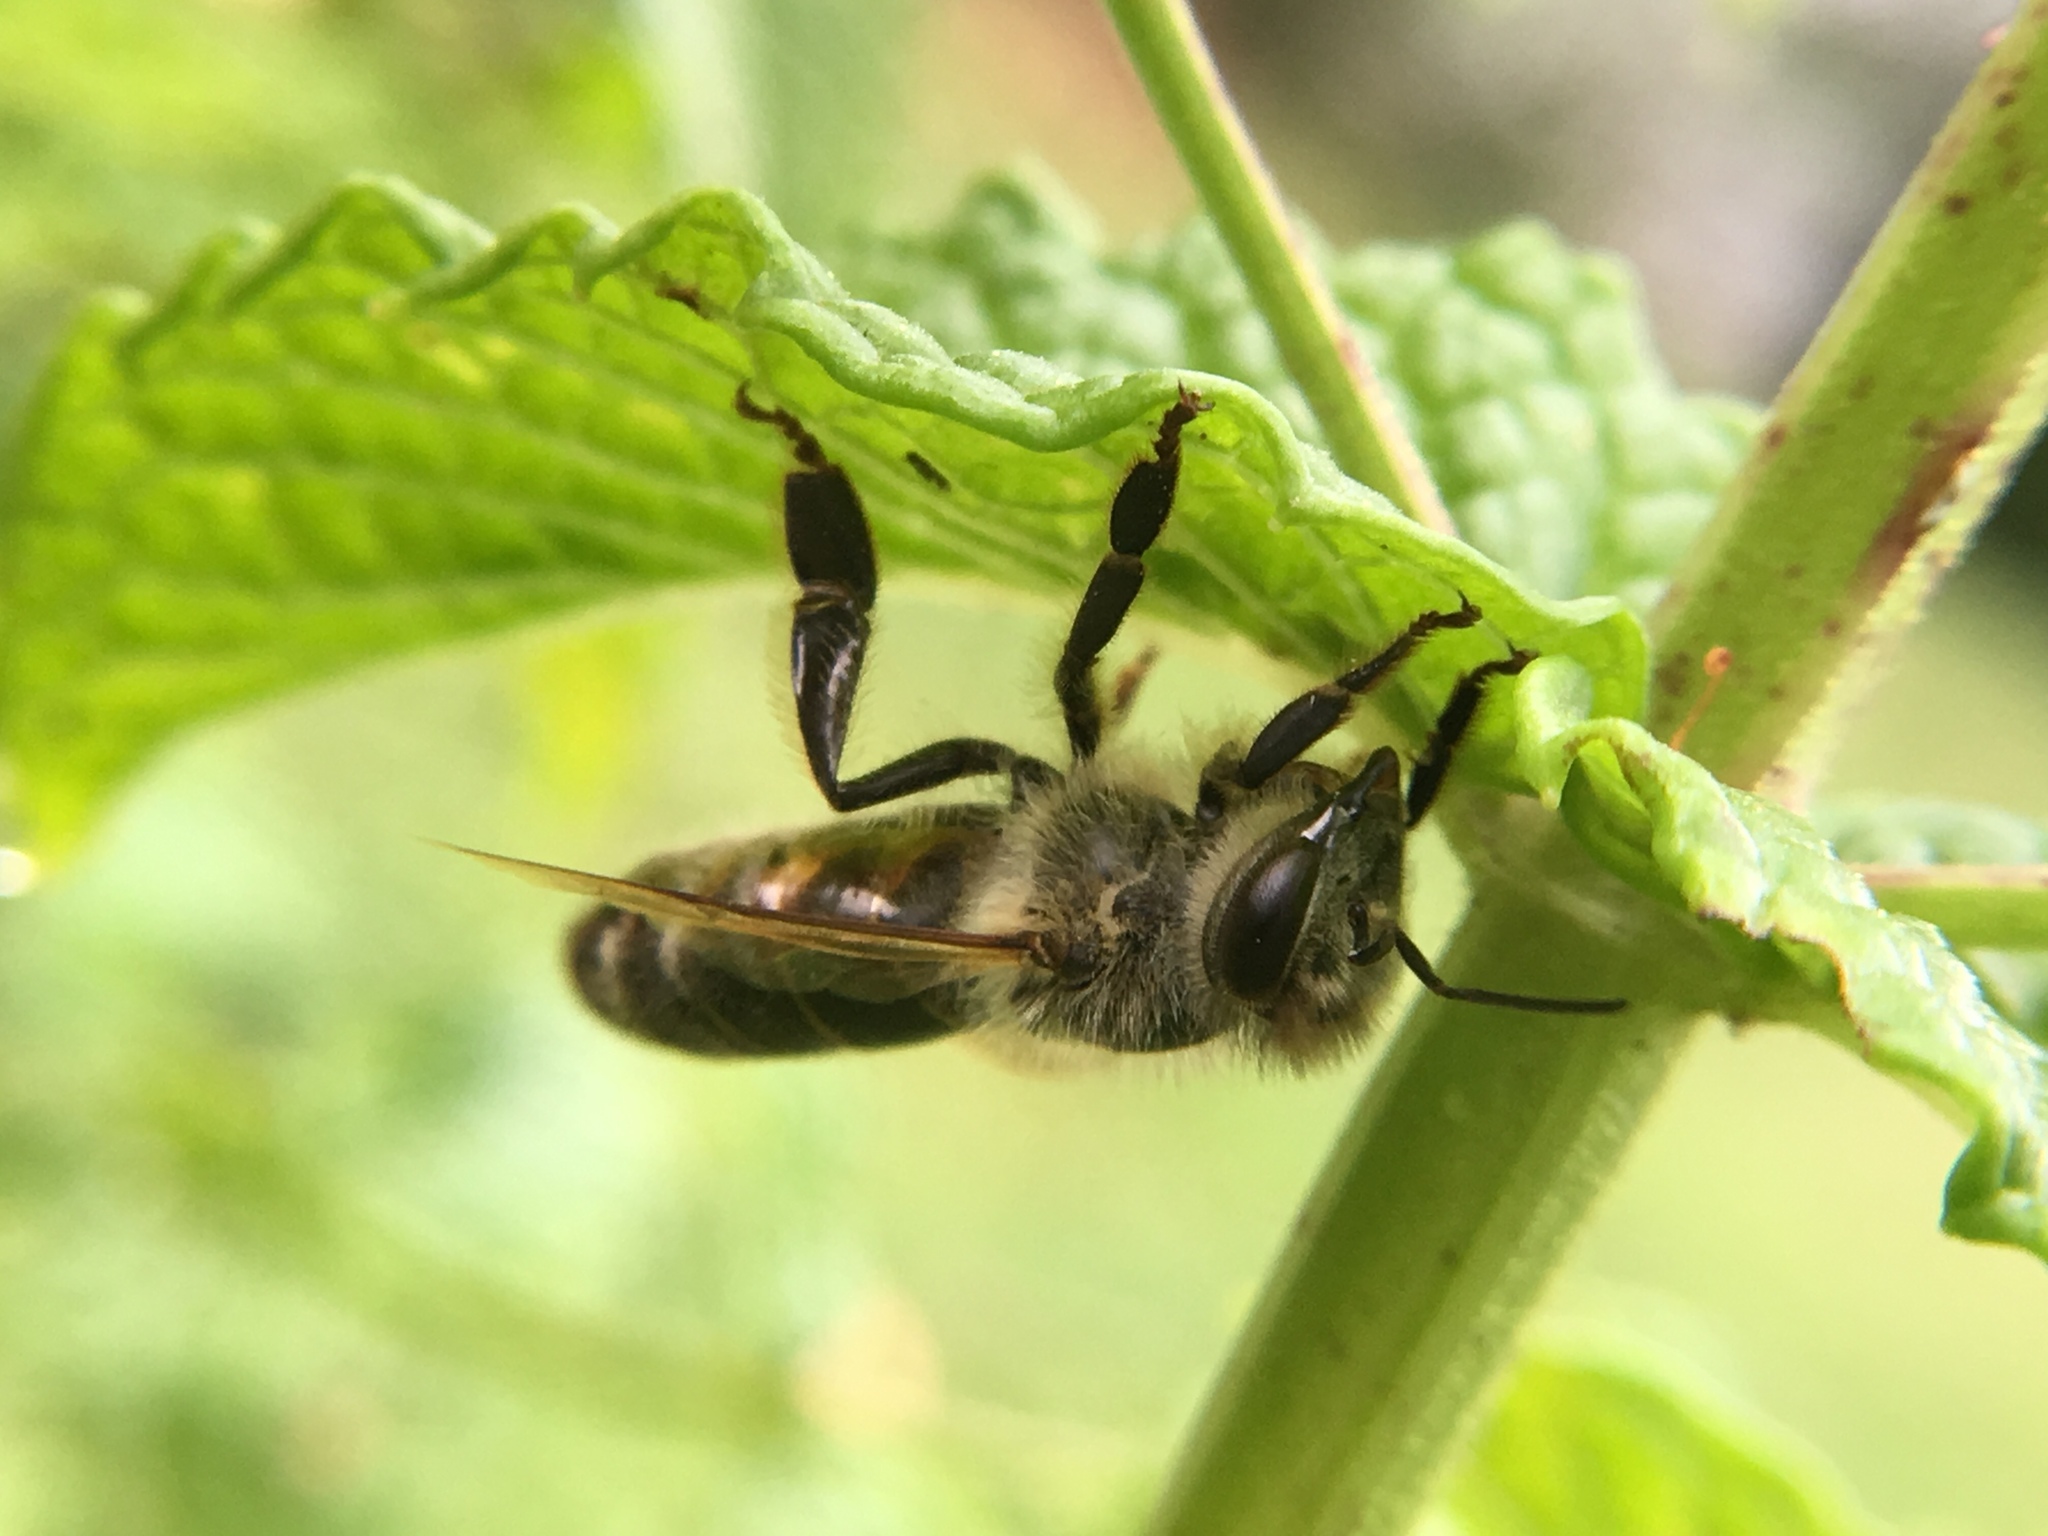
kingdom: Animalia
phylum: Arthropoda
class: Insecta
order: Hymenoptera
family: Apidae
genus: Apis
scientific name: Apis mellifera
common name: Honey bee
